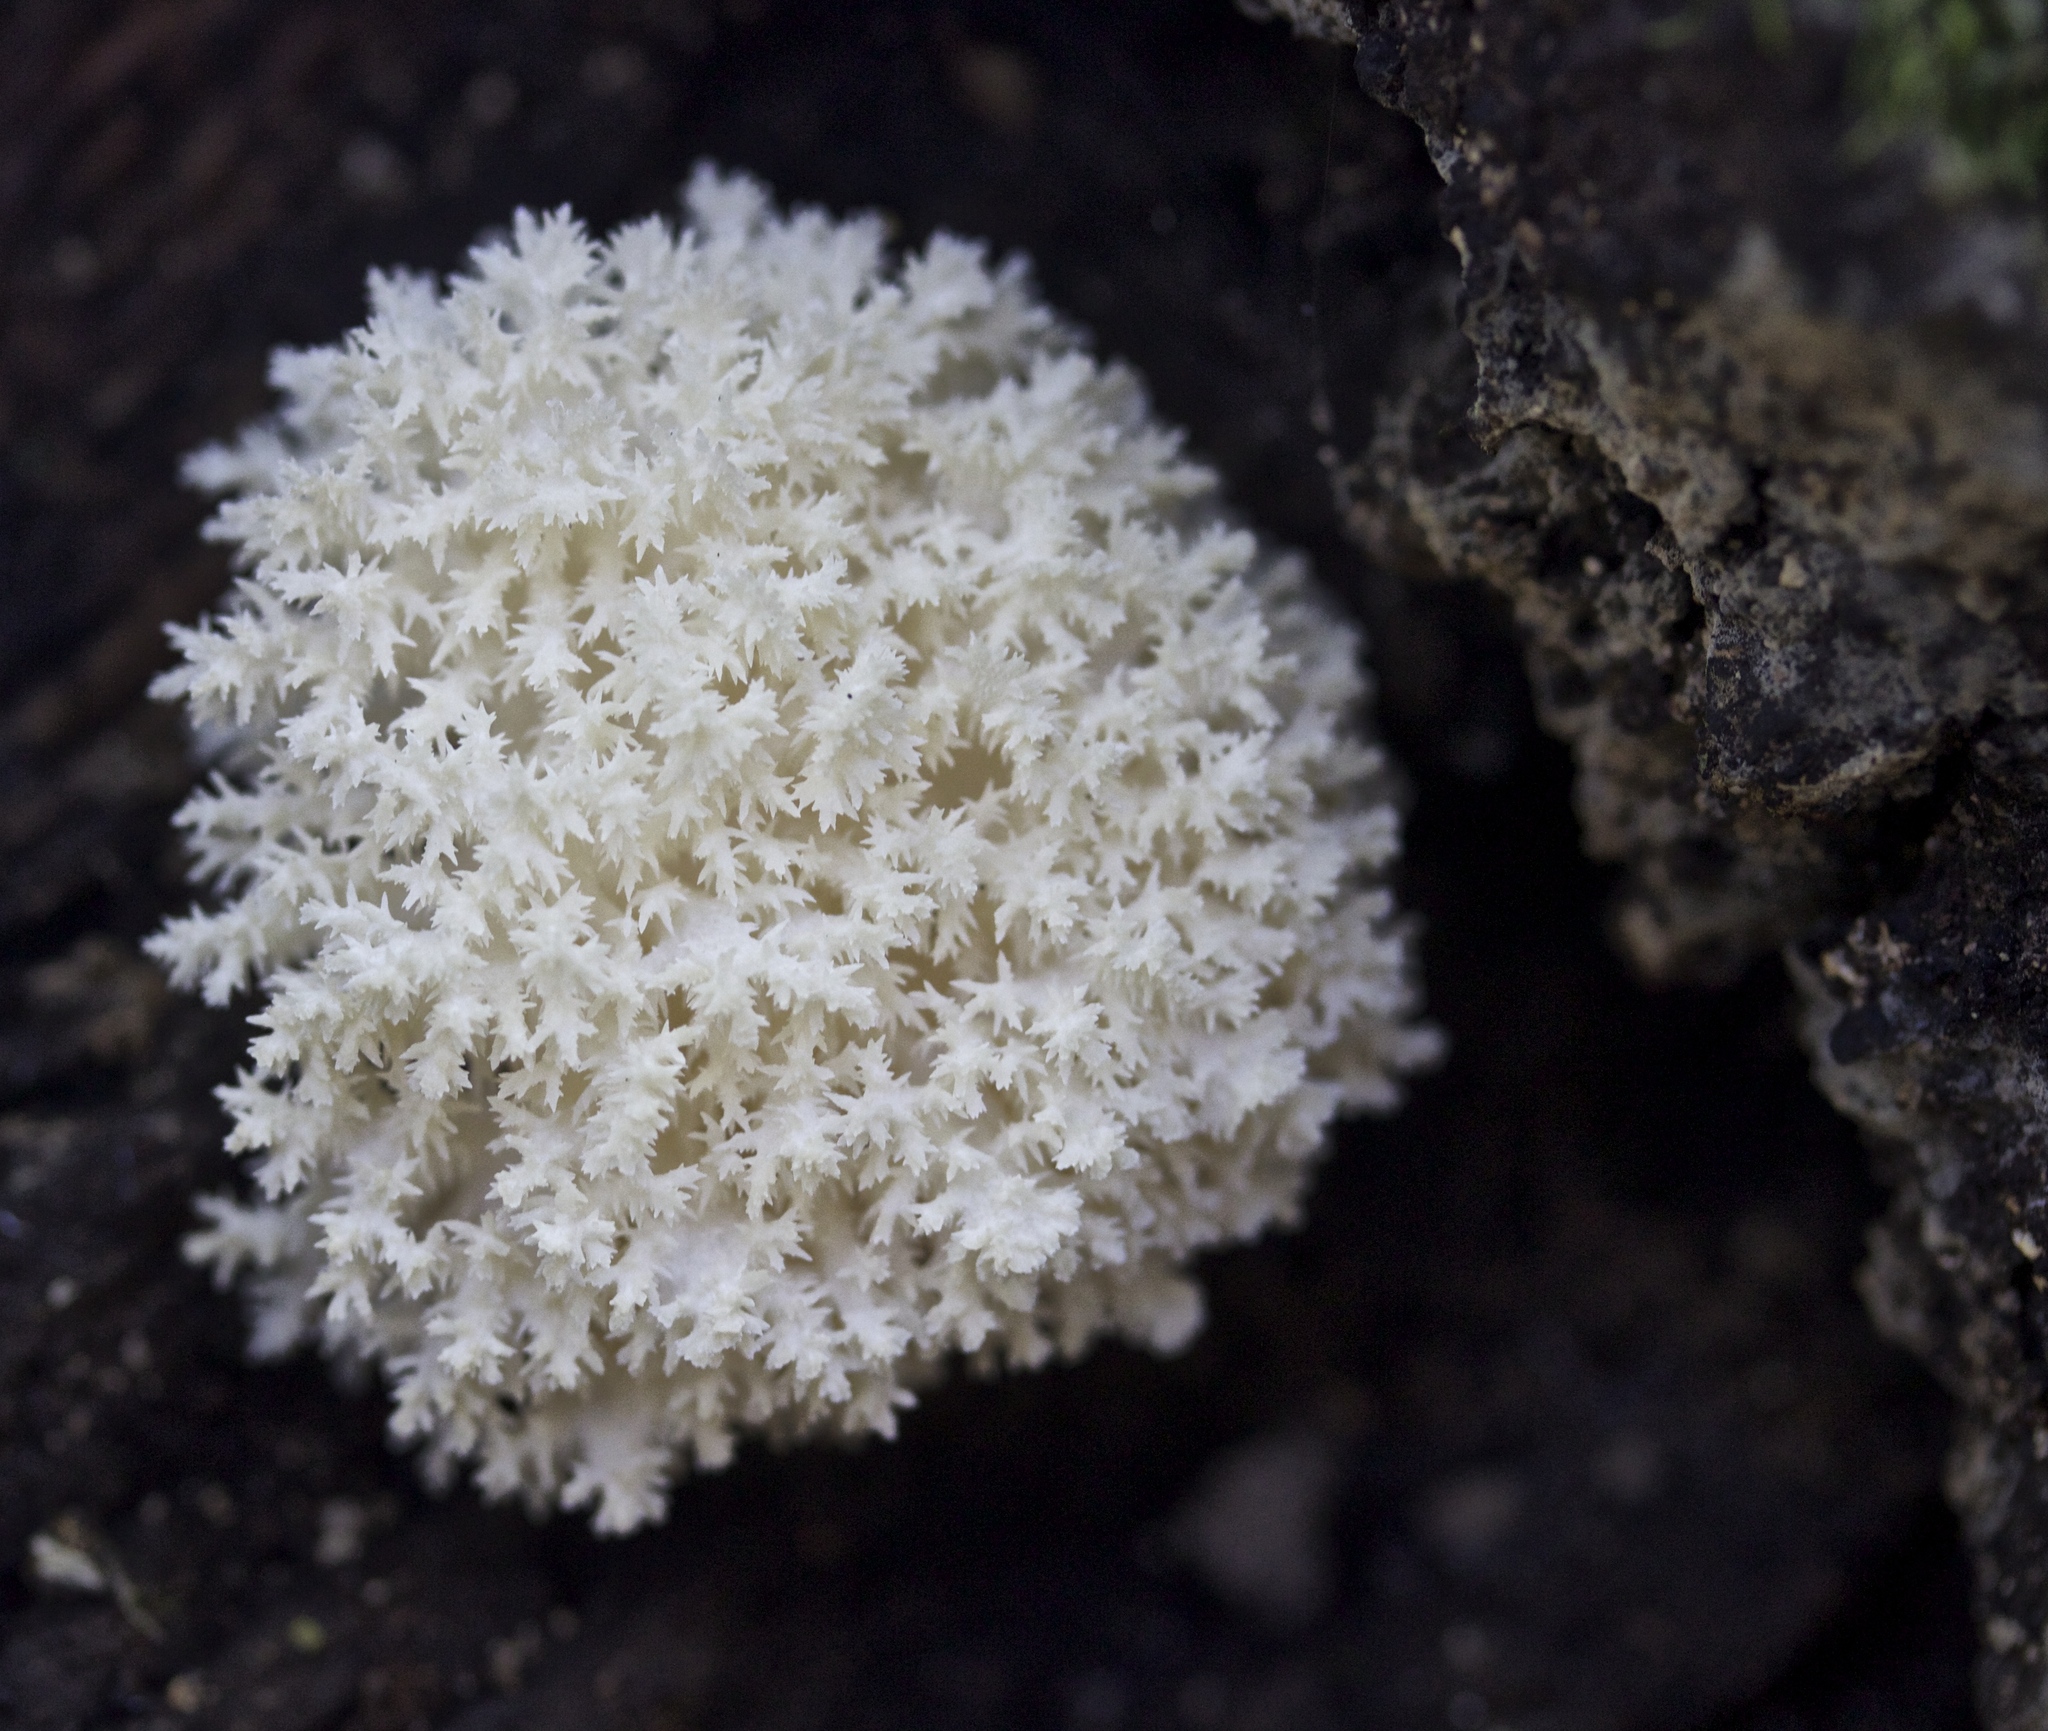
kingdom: Fungi
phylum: Basidiomycota
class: Agaricomycetes
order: Russulales
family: Hericiaceae
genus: Hericium
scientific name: Hericium coralloides
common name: Coral tooth
